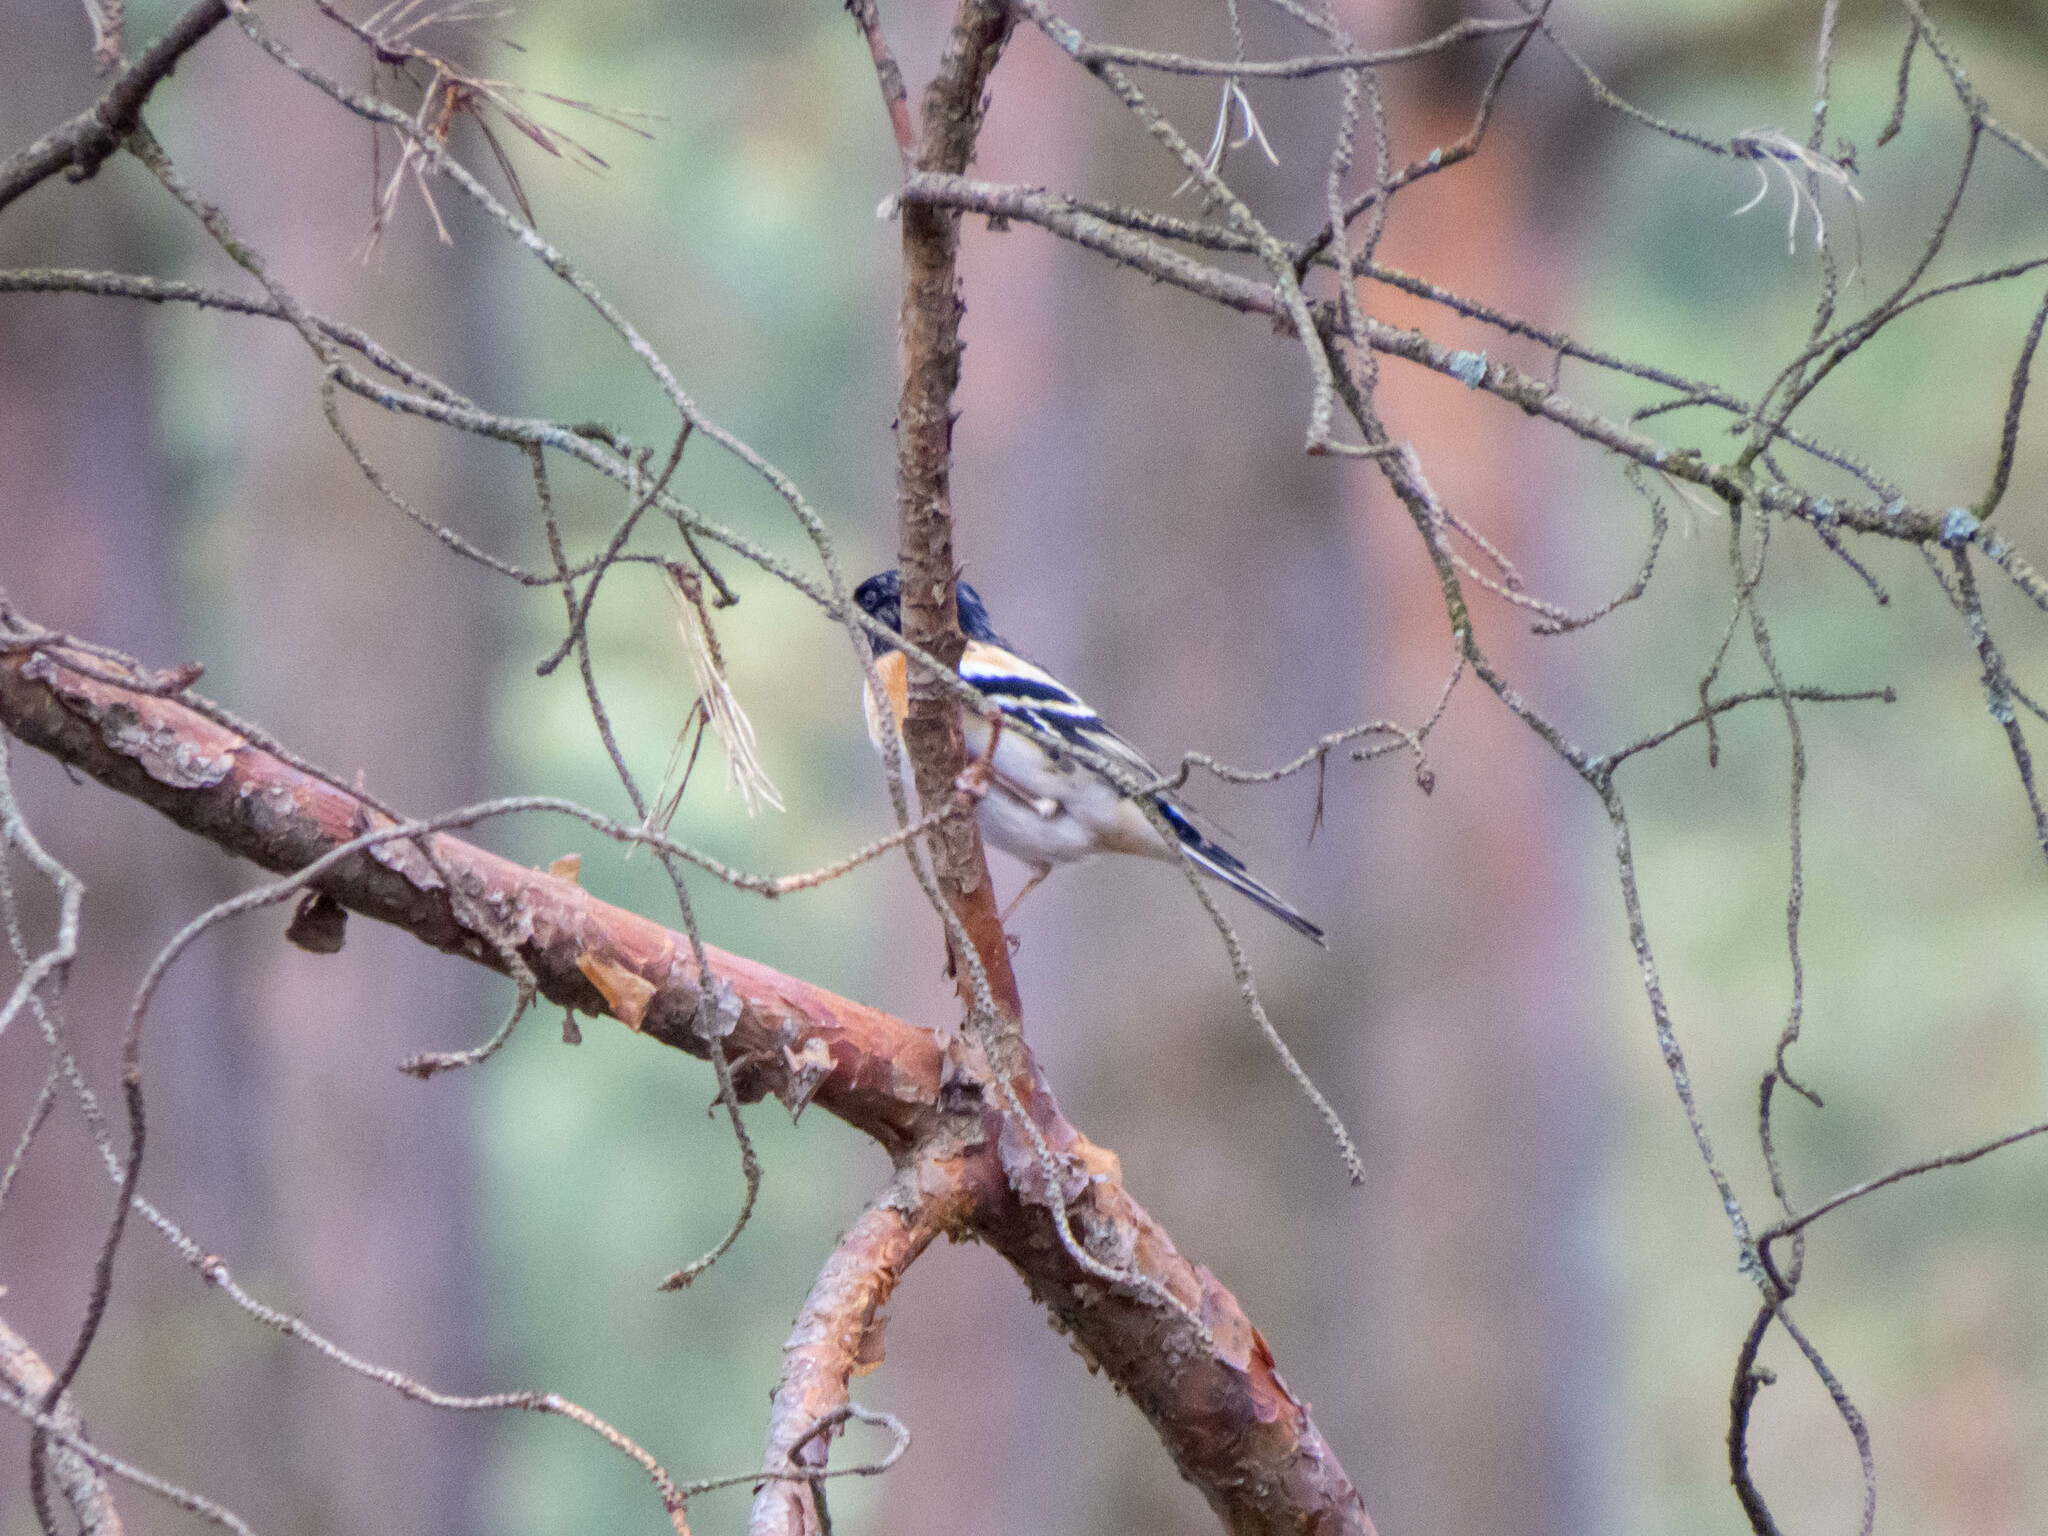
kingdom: Animalia
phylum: Chordata
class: Aves
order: Passeriformes
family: Fringillidae
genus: Fringilla
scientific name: Fringilla montifringilla
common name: Brambling
